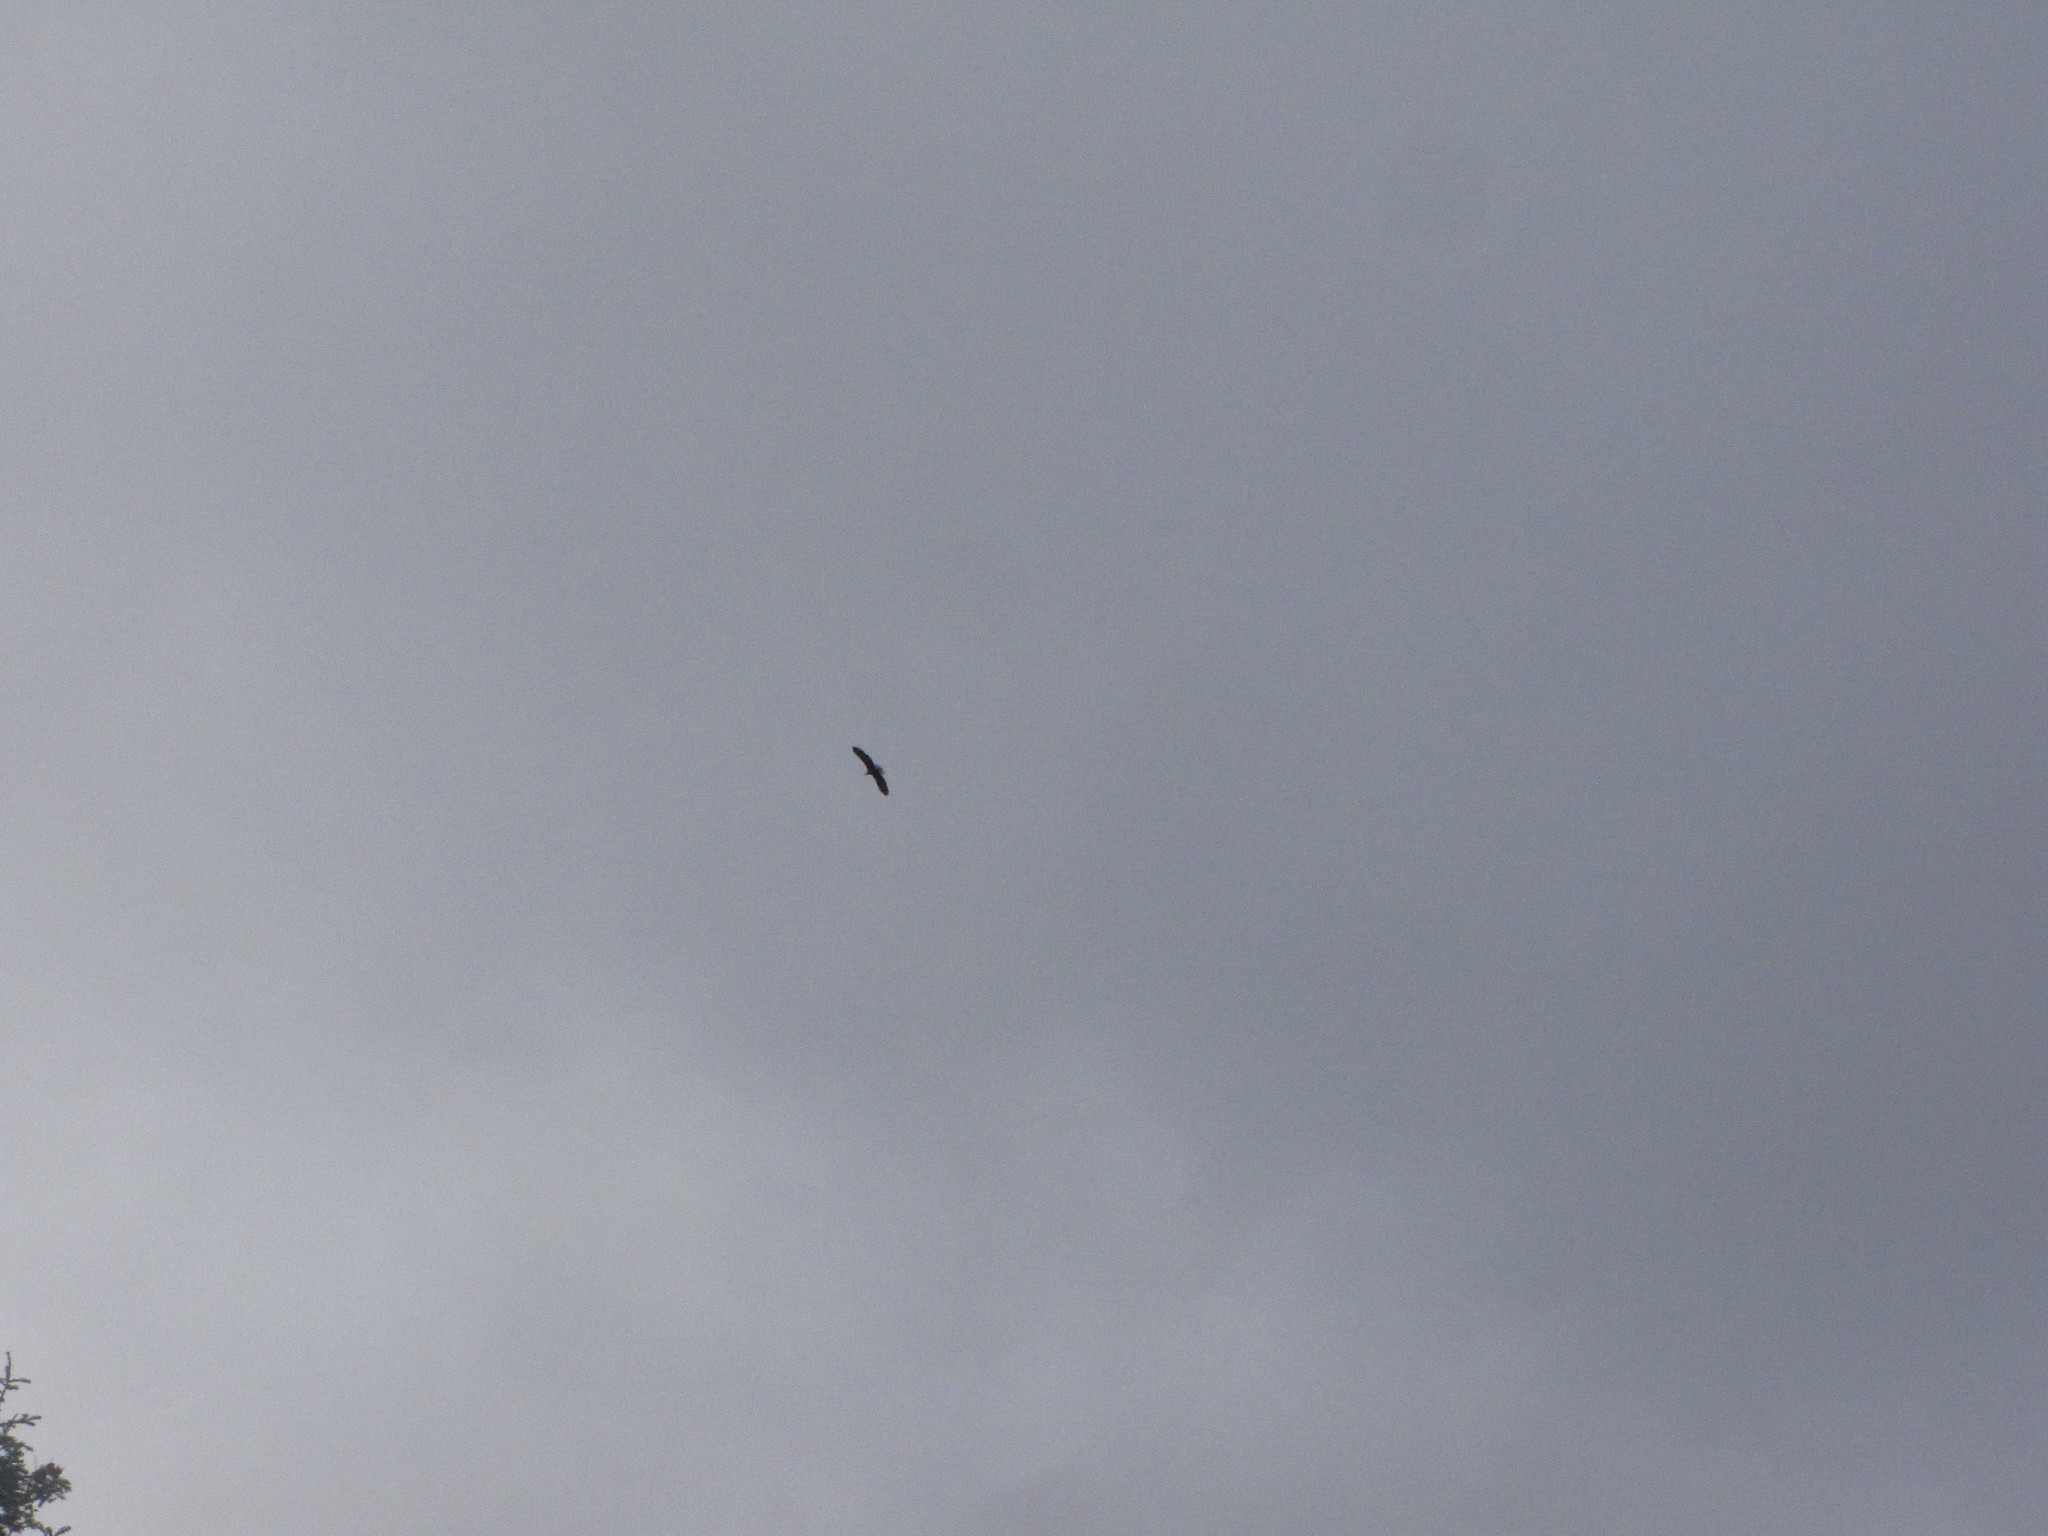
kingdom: Animalia
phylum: Chordata
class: Aves
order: Accipitriformes
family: Accipitridae
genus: Haliaeetus
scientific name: Haliaeetus leucocephalus
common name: Bald eagle
